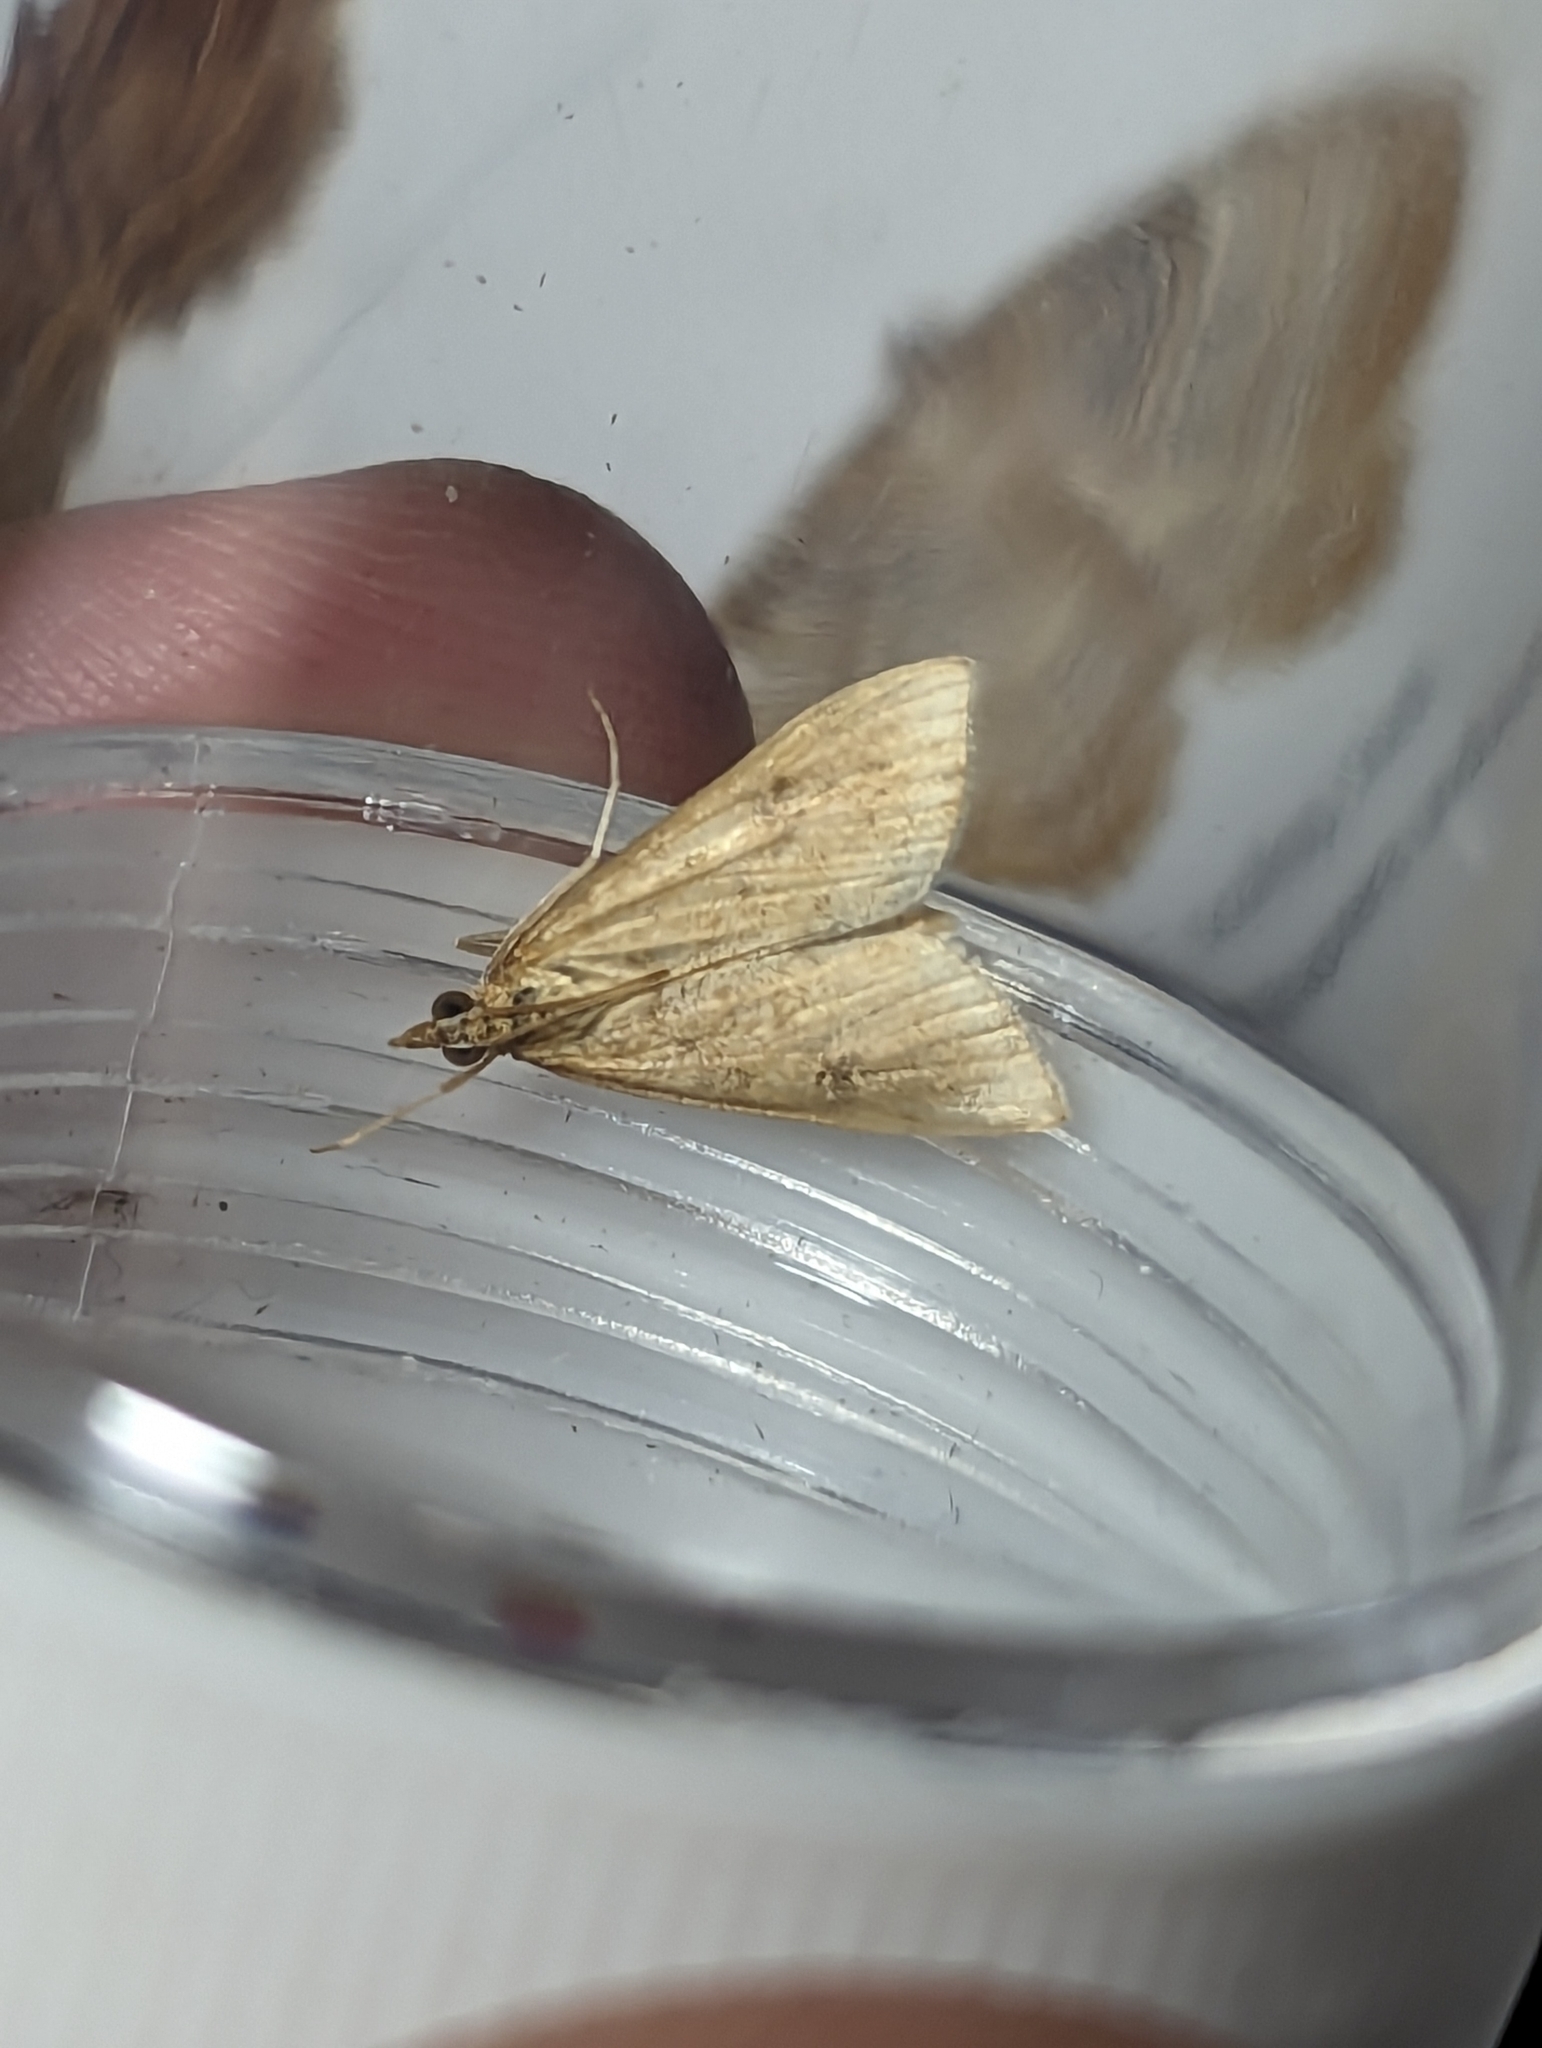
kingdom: Animalia
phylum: Arthropoda
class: Insecta
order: Lepidoptera
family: Crambidae
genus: Udea
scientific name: Udea ferrugalis
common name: Rusty dot
